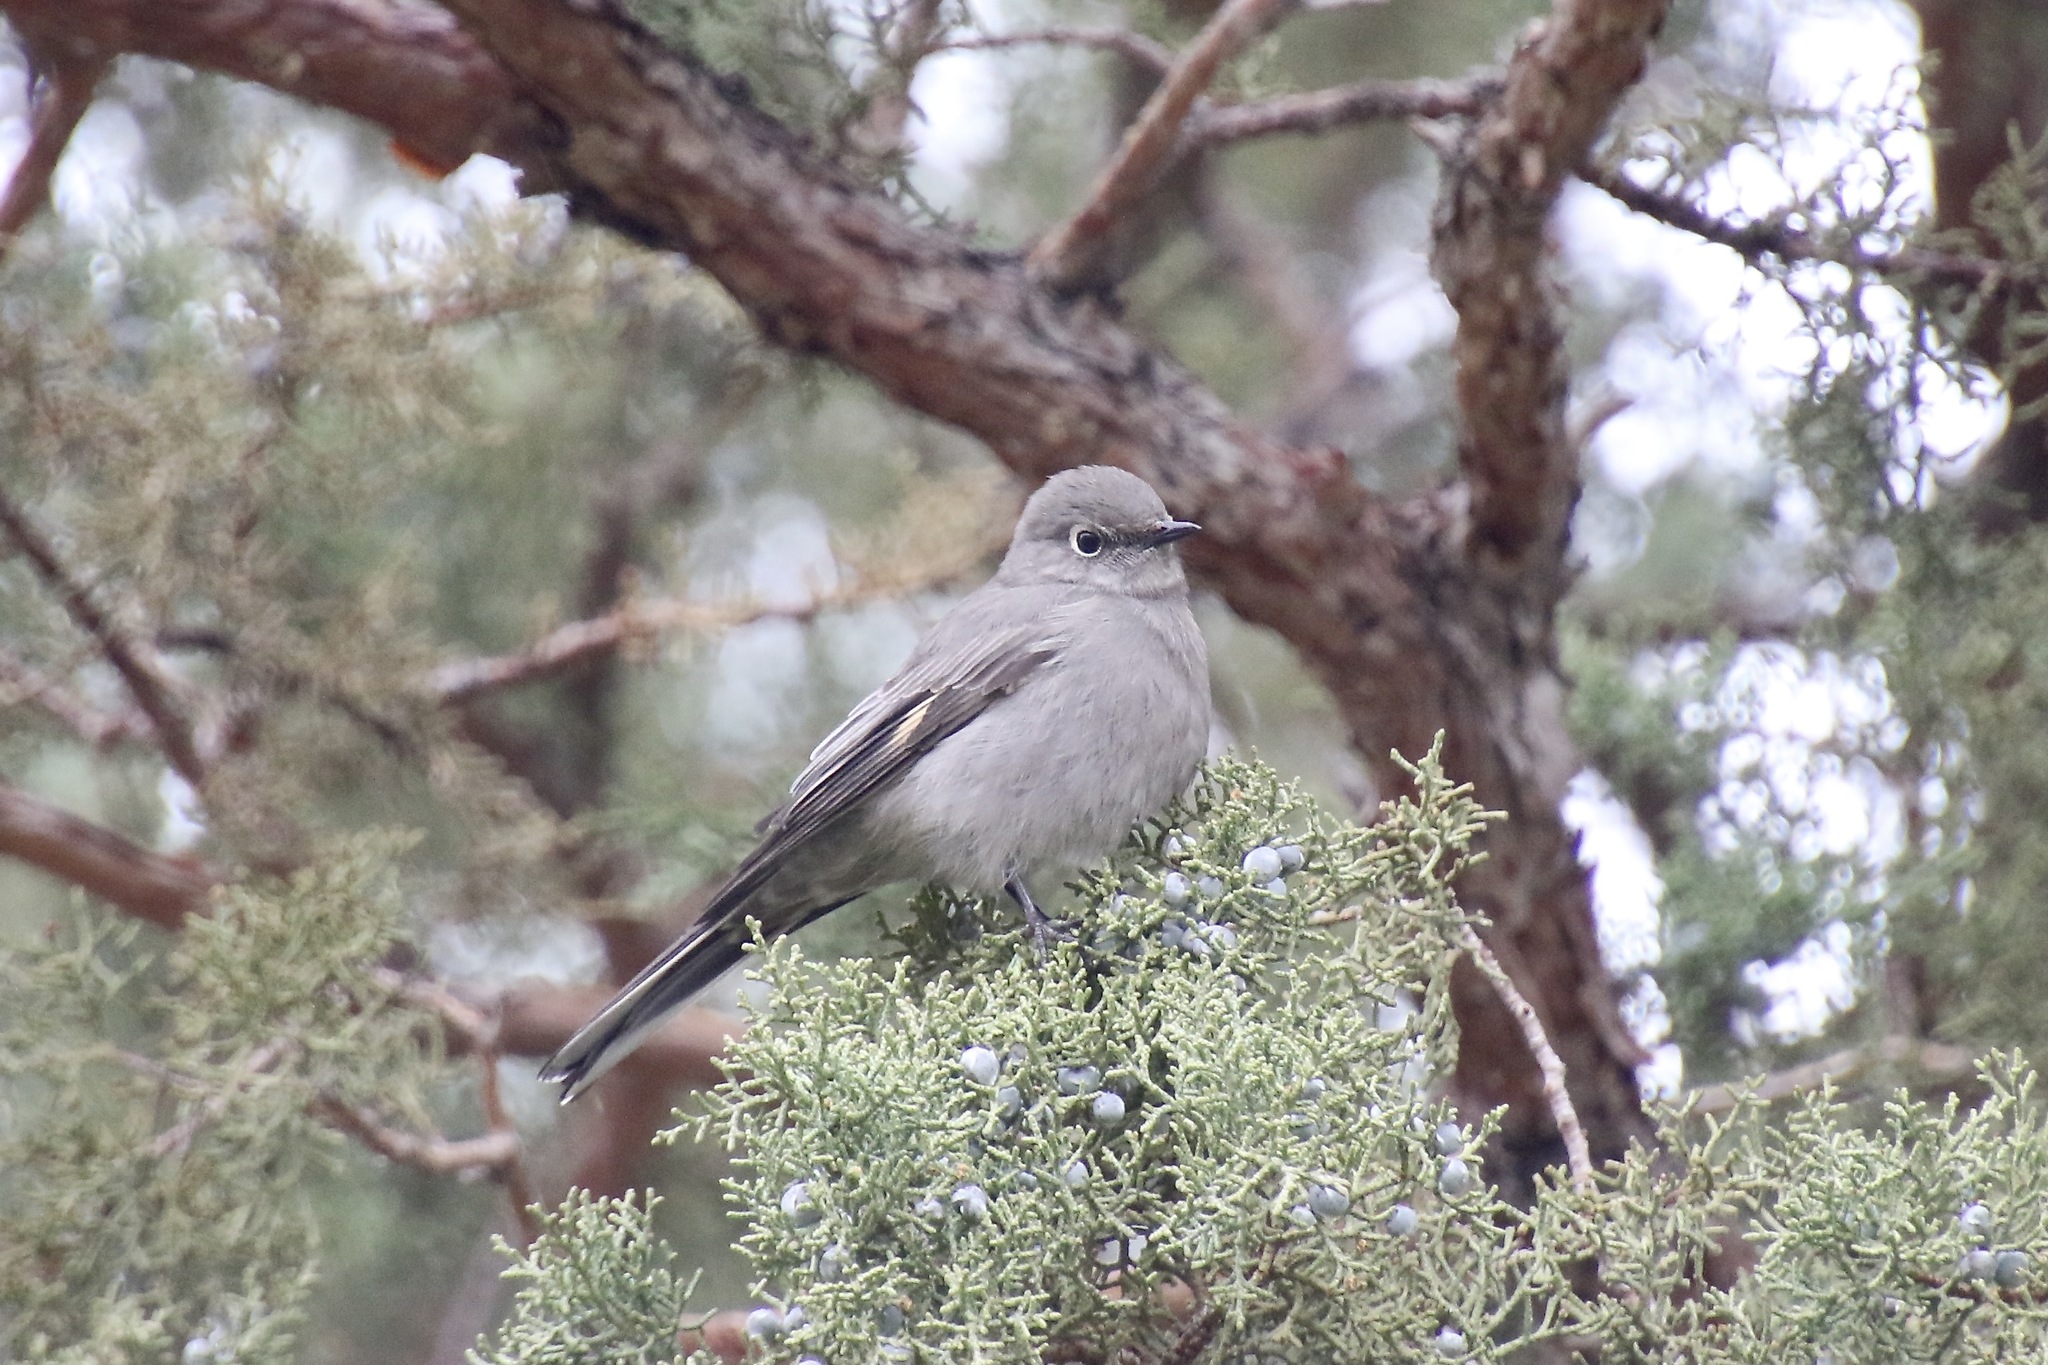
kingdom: Animalia
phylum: Chordata
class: Aves
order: Passeriformes
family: Turdidae
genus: Myadestes
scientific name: Myadestes townsendi
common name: Townsend's solitaire
